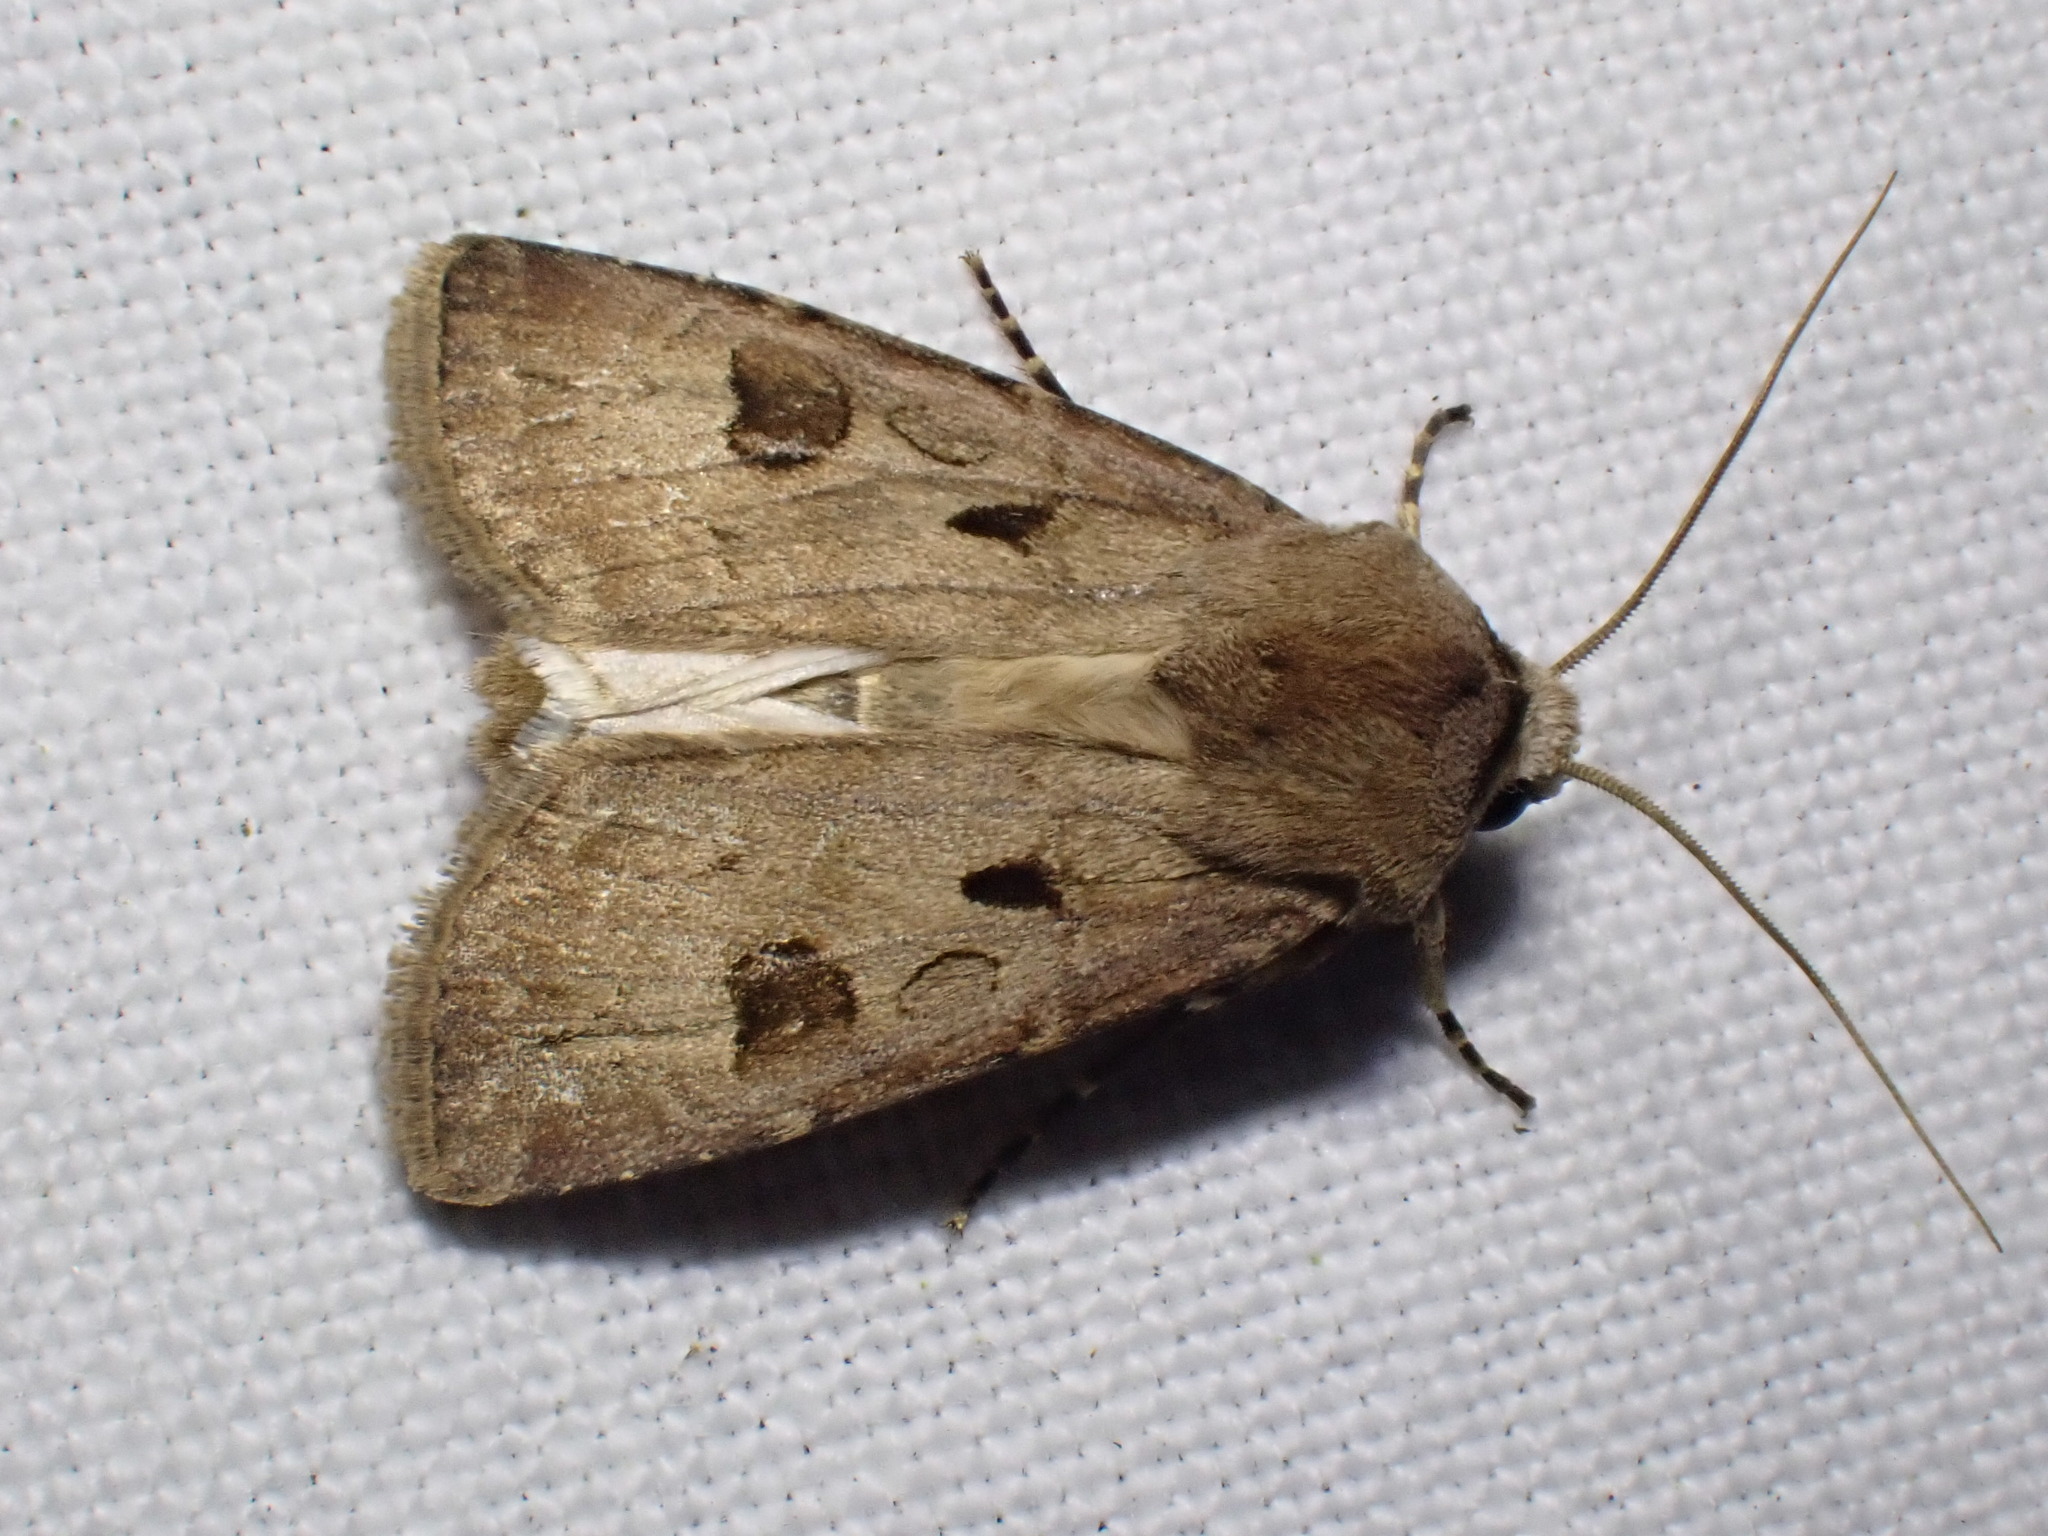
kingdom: Animalia
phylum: Arthropoda
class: Insecta
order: Lepidoptera
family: Noctuidae
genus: Agrotis
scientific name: Agrotis exclamationis
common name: Heart and dart
